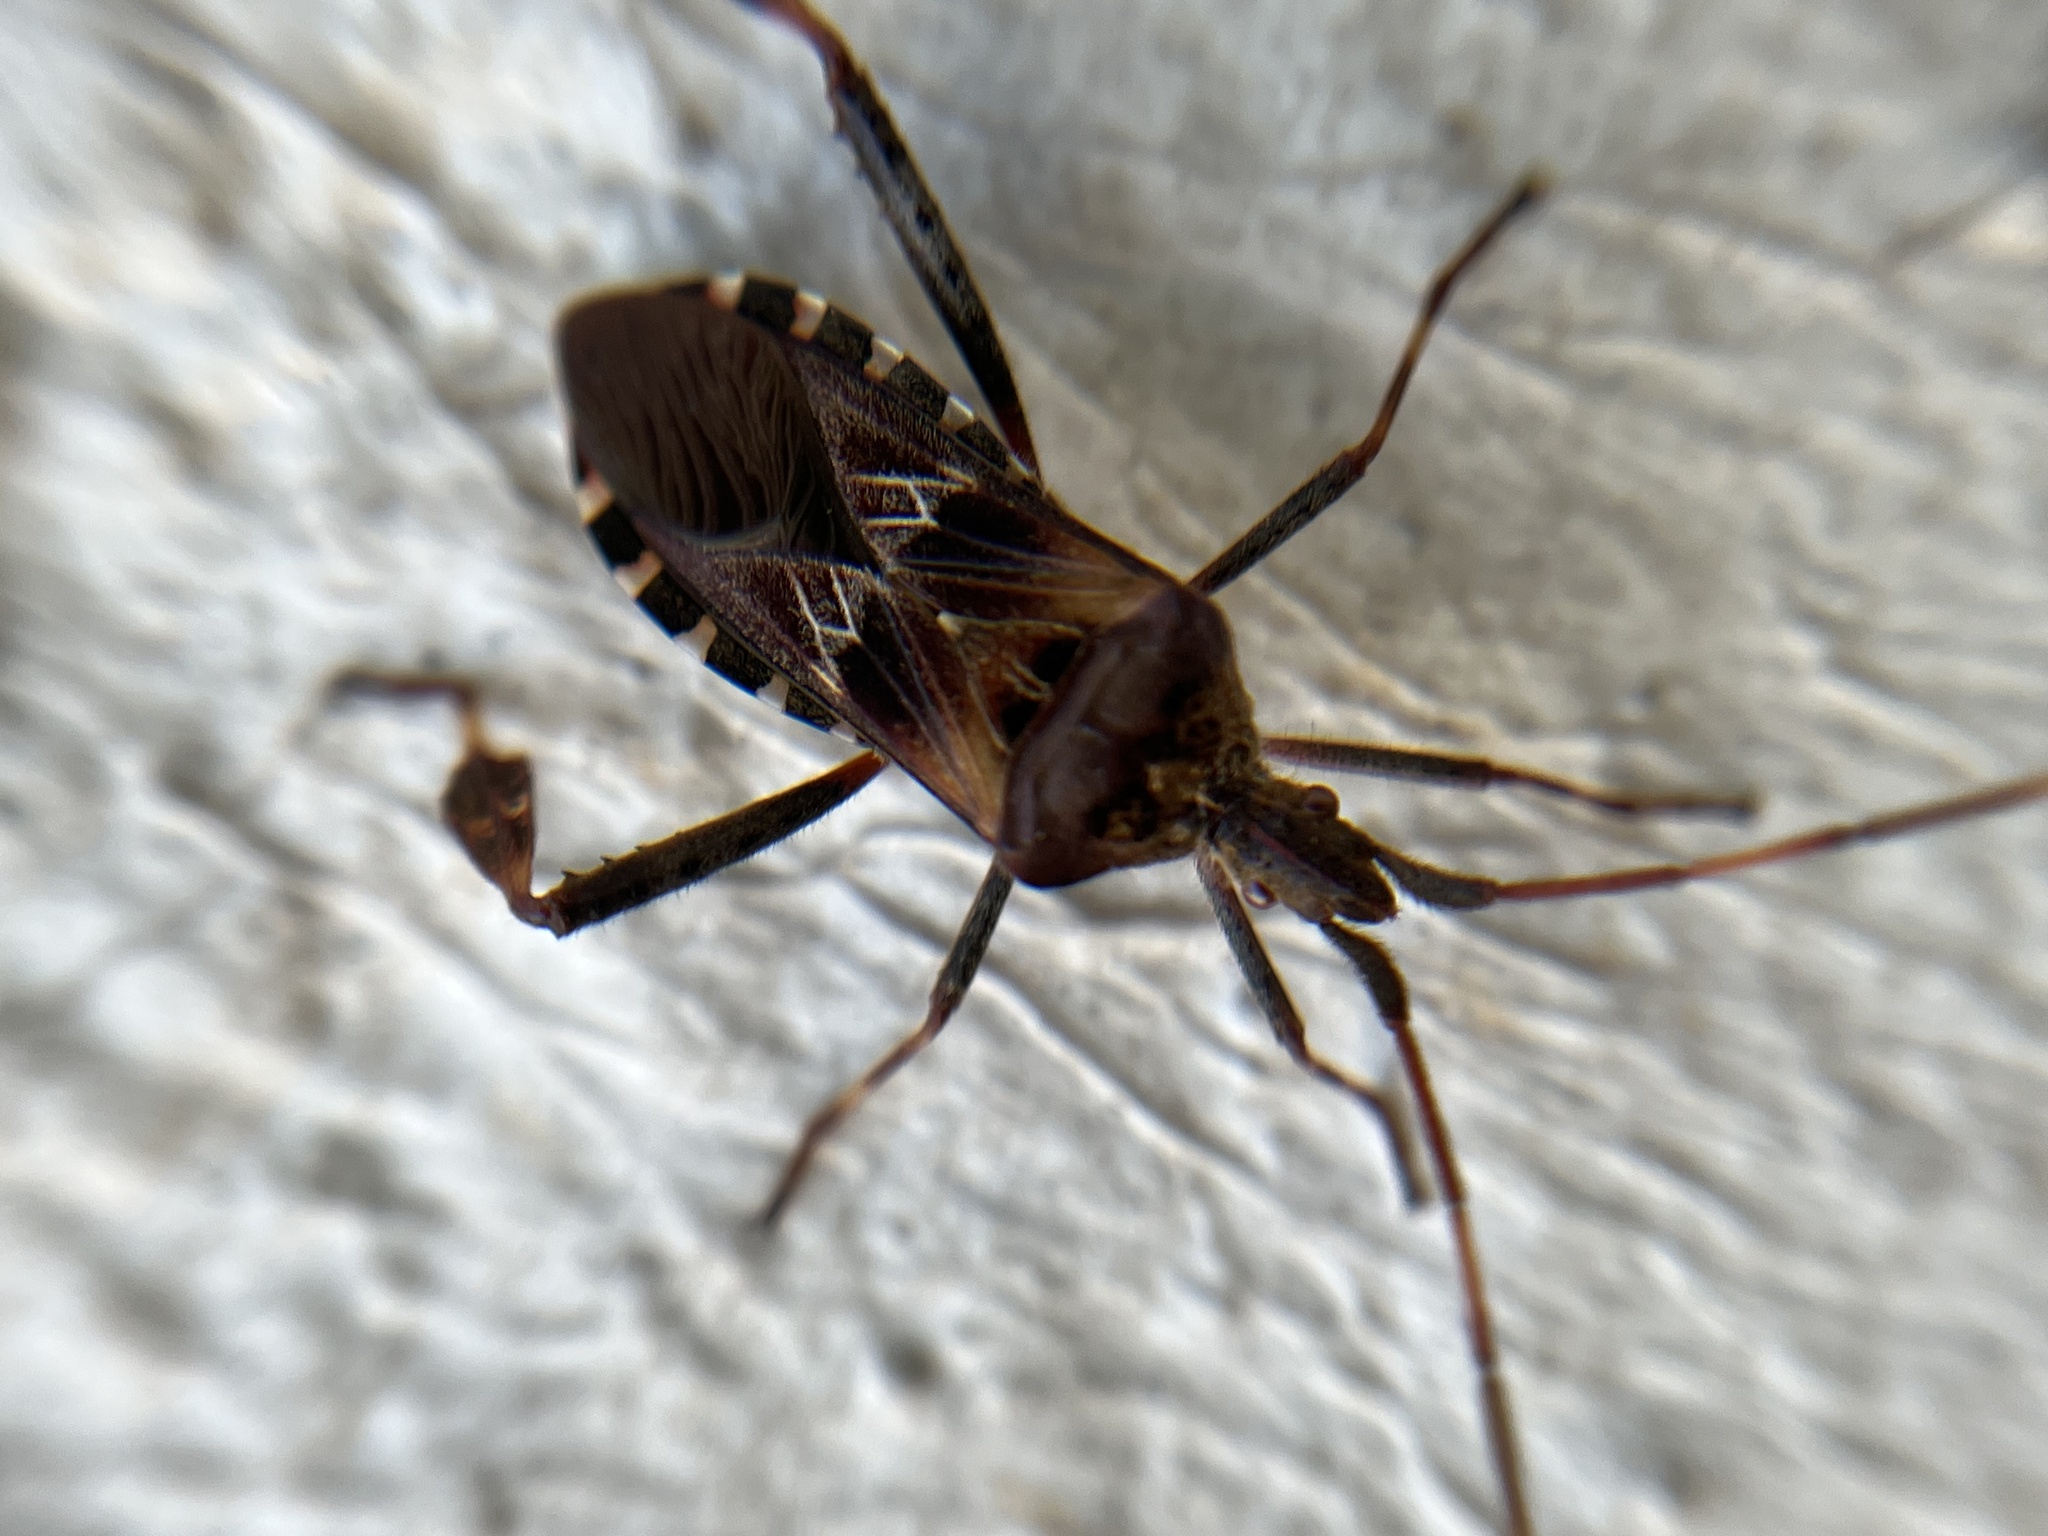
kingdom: Animalia
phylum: Arthropoda
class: Insecta
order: Hemiptera
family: Coreidae
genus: Leptoglossus
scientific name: Leptoglossus occidentalis
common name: Western conifer-seed bug
